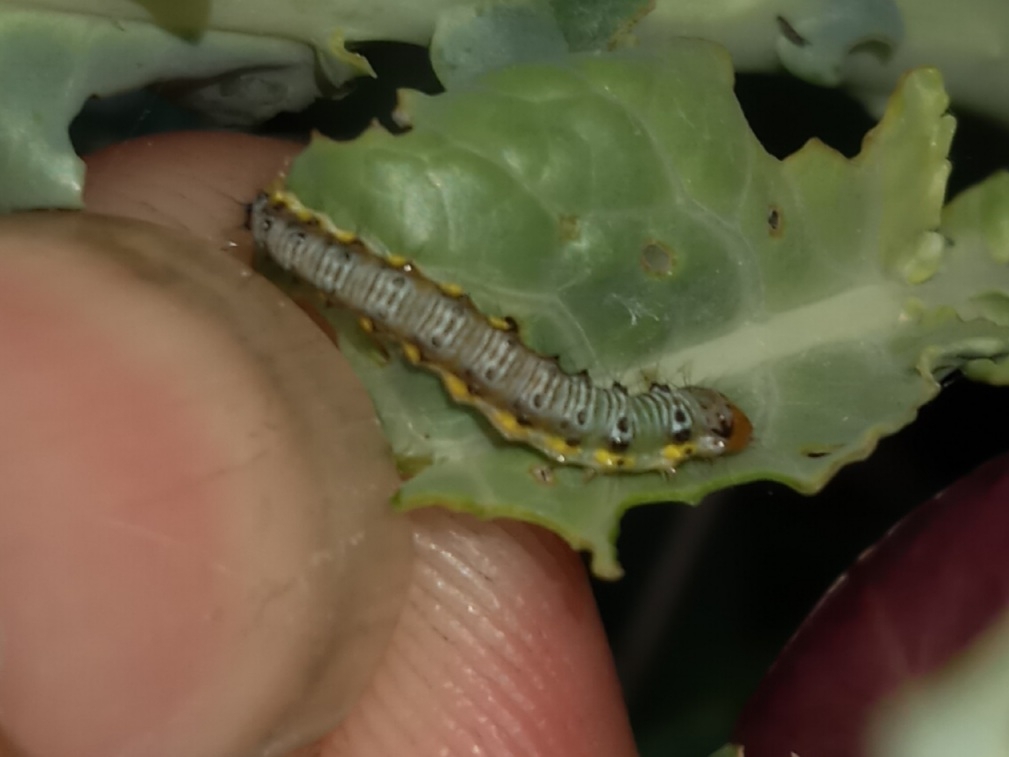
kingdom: Animalia
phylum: Arthropoda
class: Insecta
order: Lepidoptera
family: Crambidae
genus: Evergestis
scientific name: Evergestis rimosalis
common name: Cross-striped cabbageworm moth
